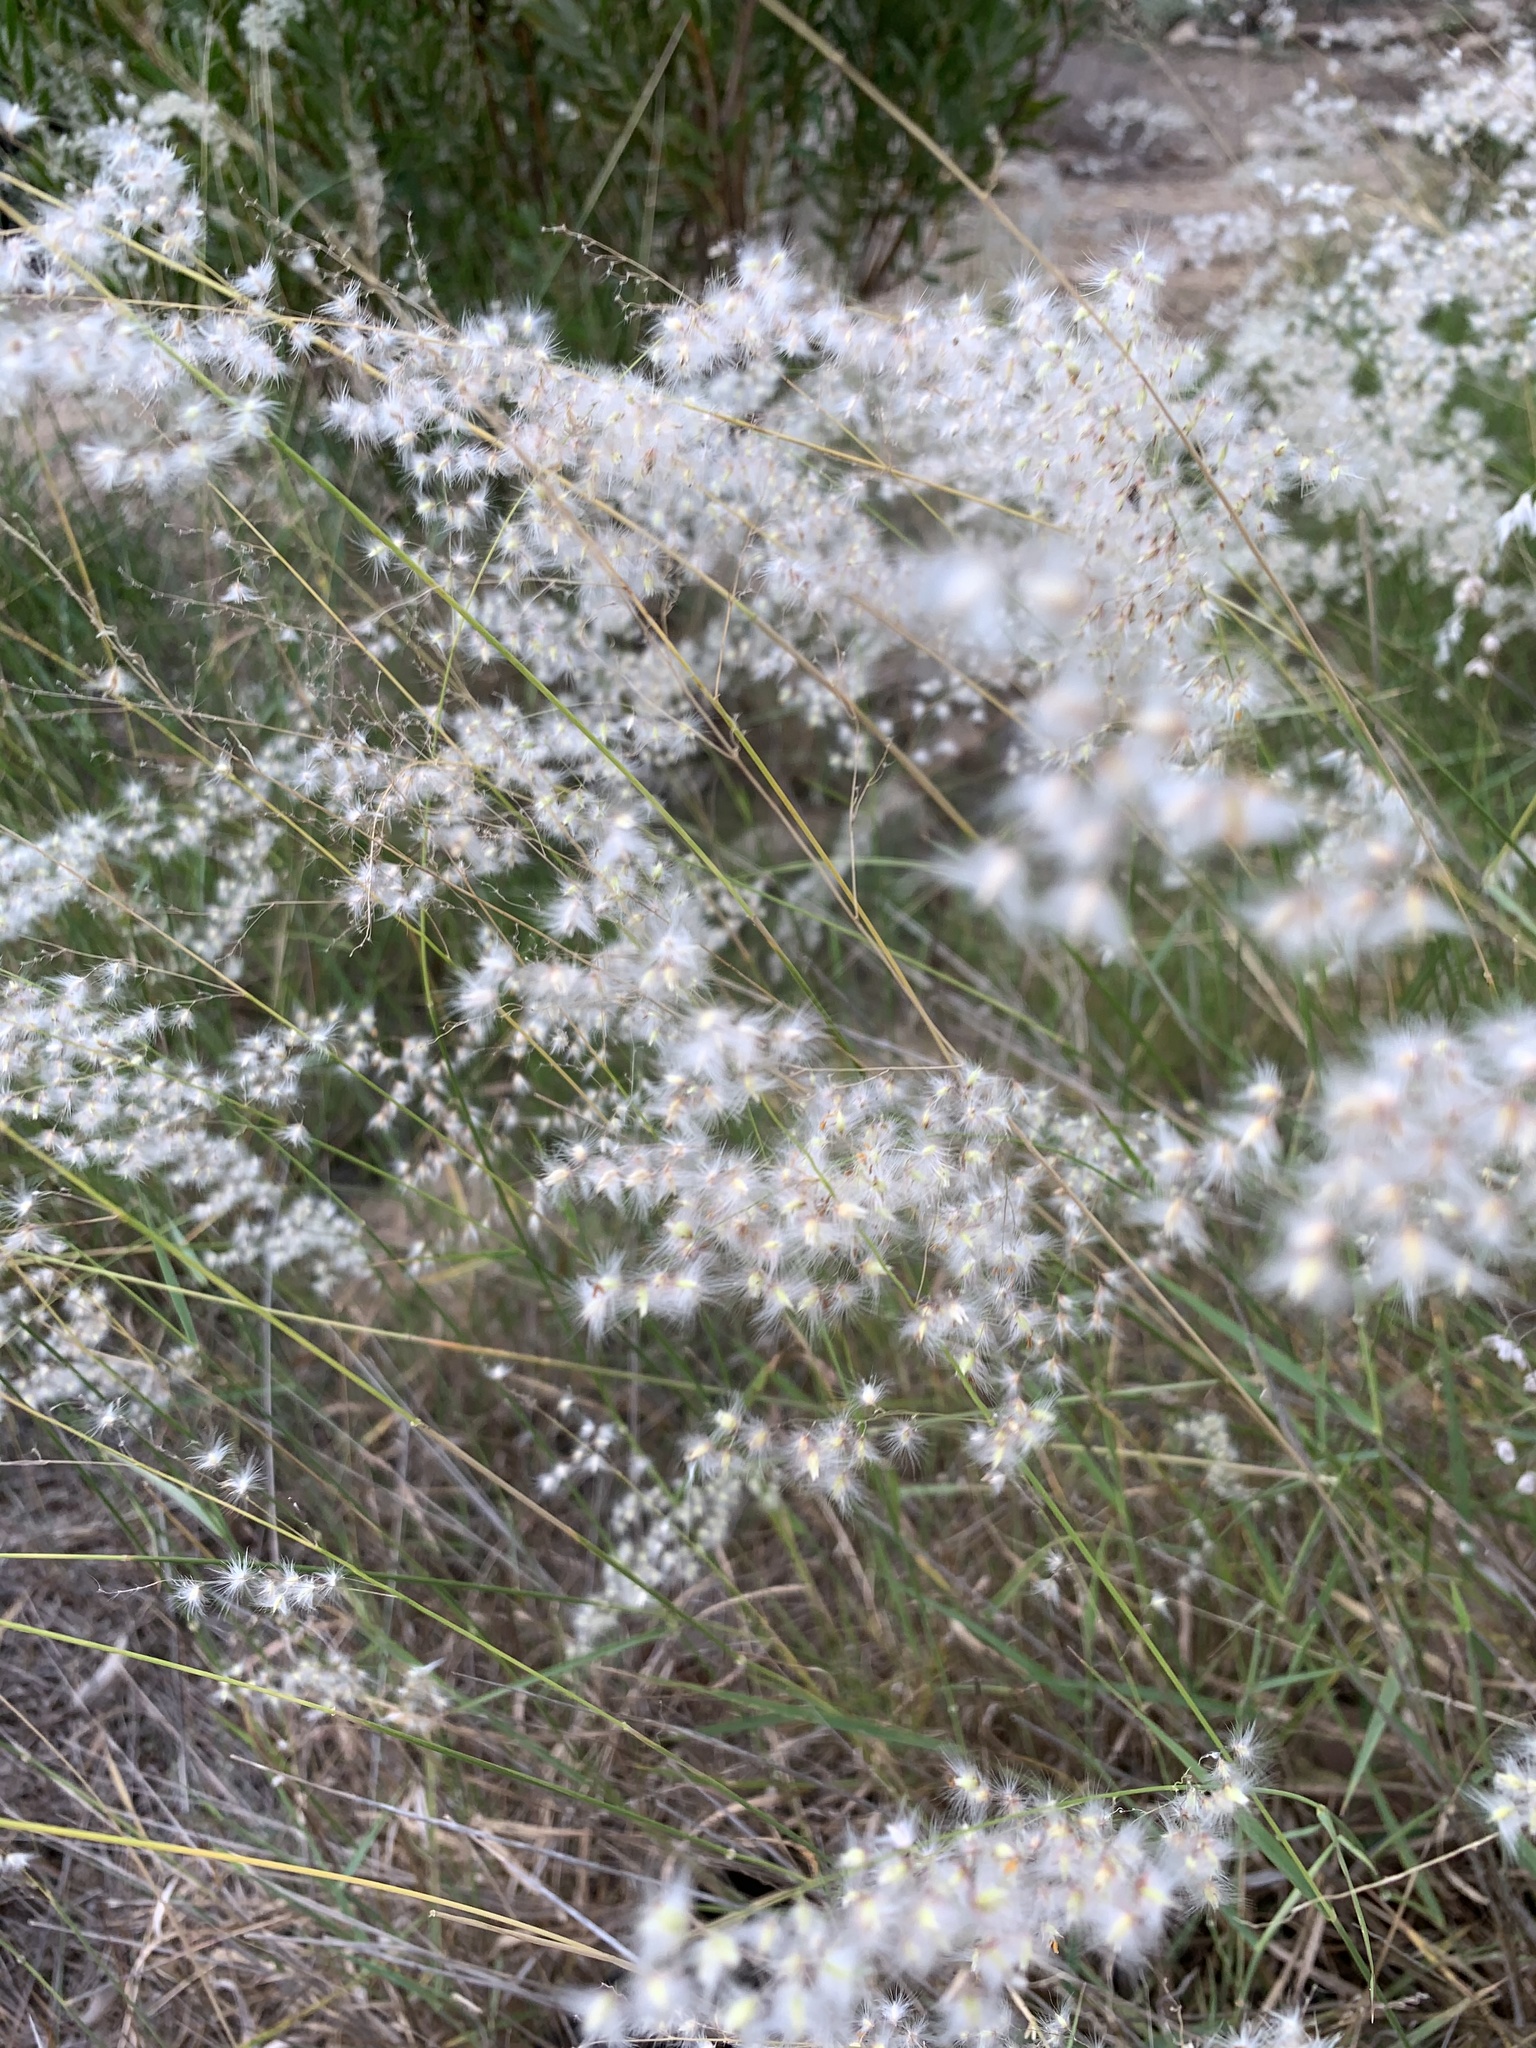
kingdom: Plantae
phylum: Tracheophyta
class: Liliopsida
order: Poales
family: Poaceae
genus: Melinis
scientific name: Melinis repens
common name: Rose natal grass
